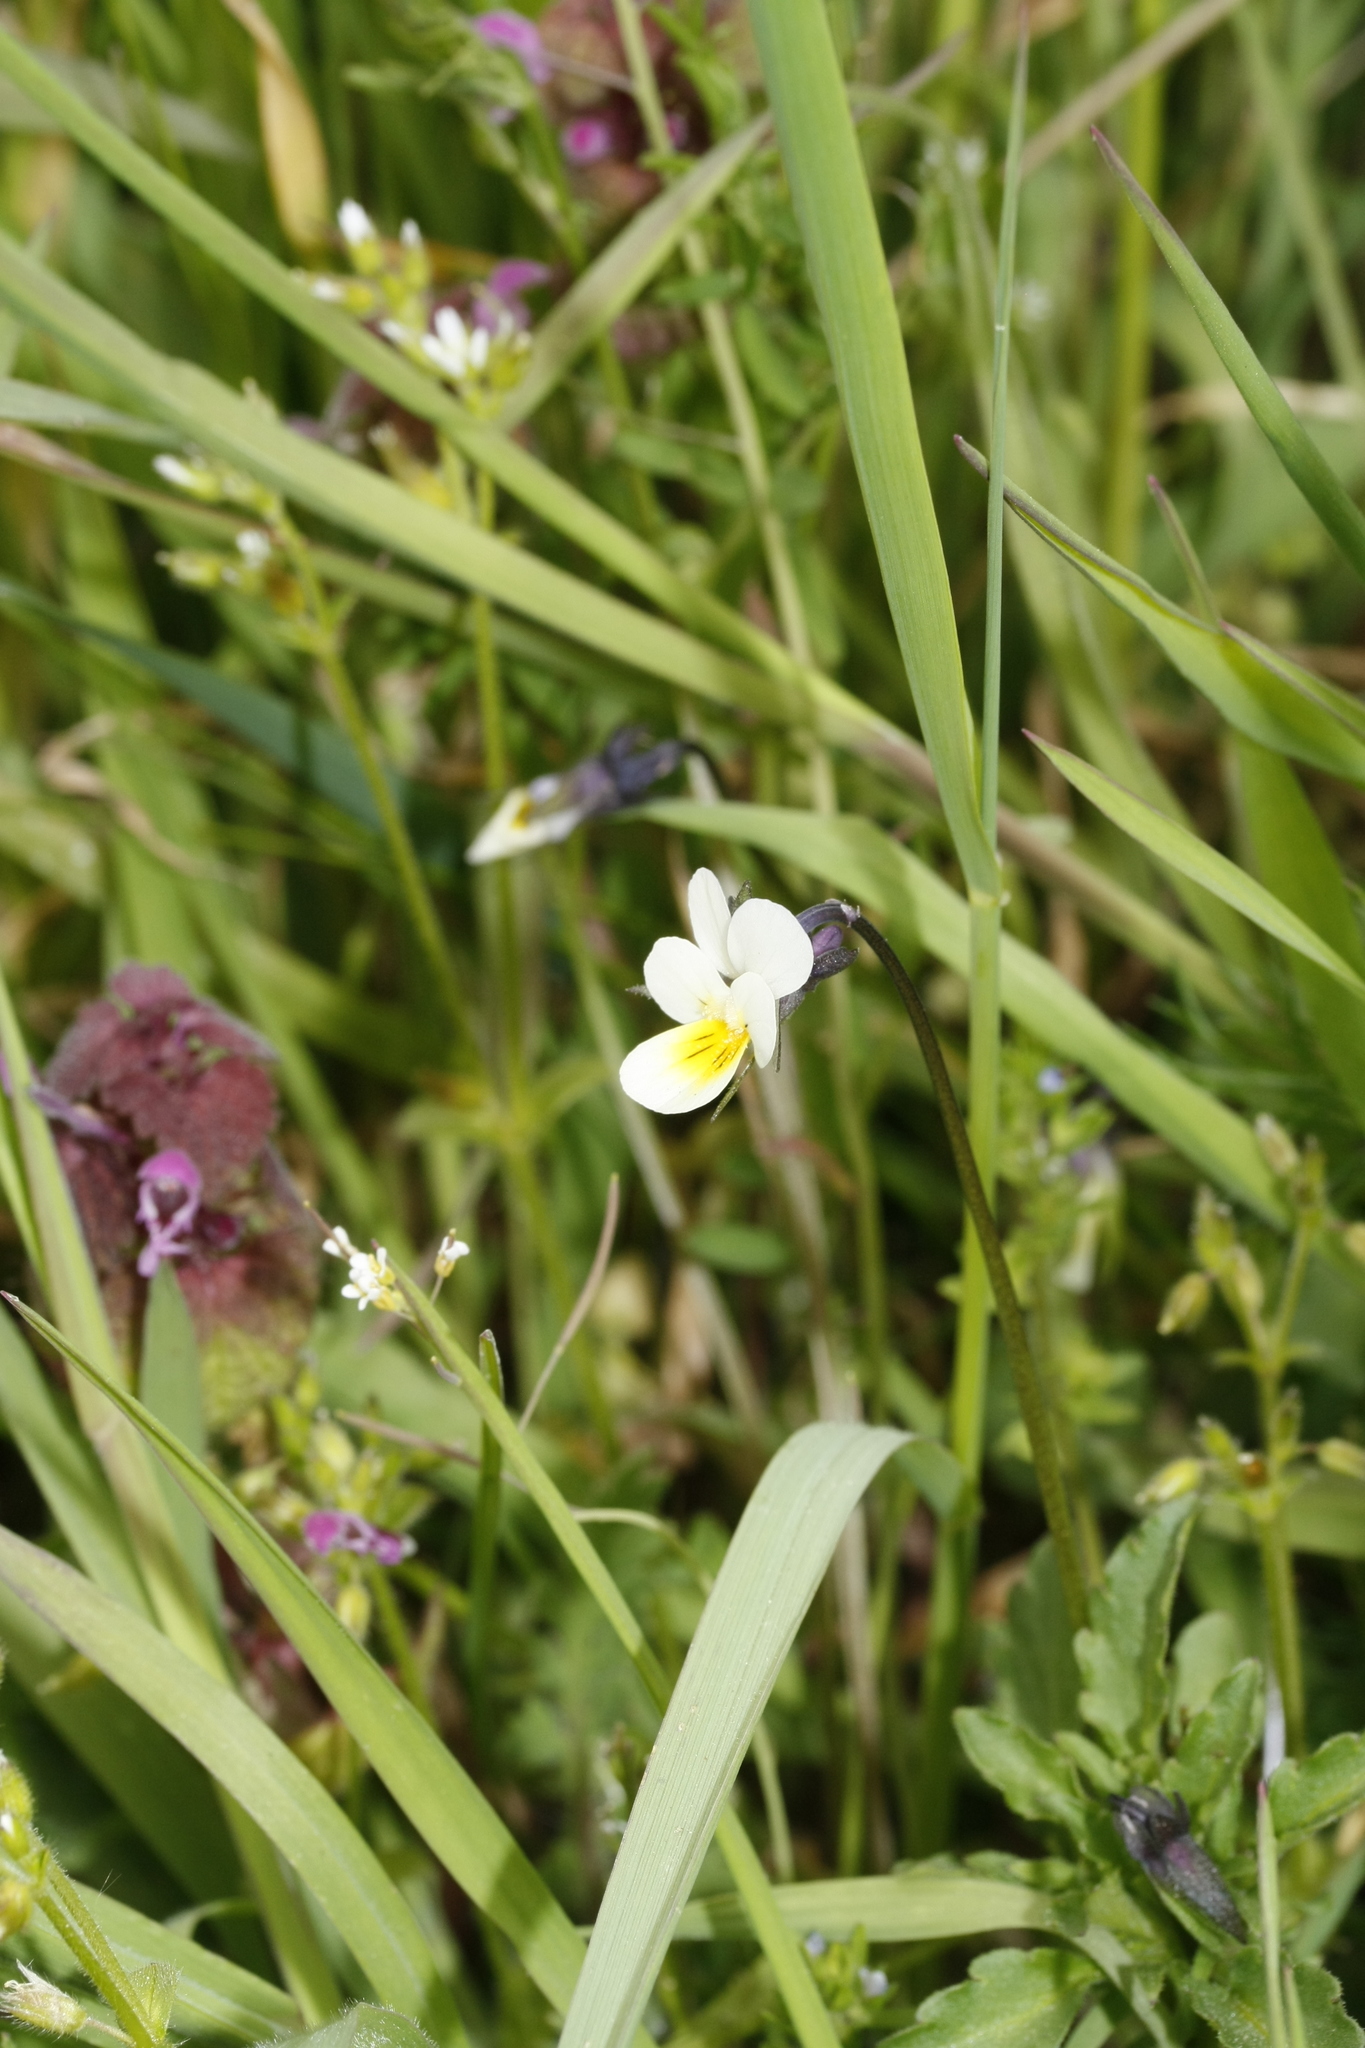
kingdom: Plantae
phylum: Tracheophyta
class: Magnoliopsida
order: Malpighiales
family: Violaceae
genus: Viola
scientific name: Viola arvensis
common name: Field pansy
